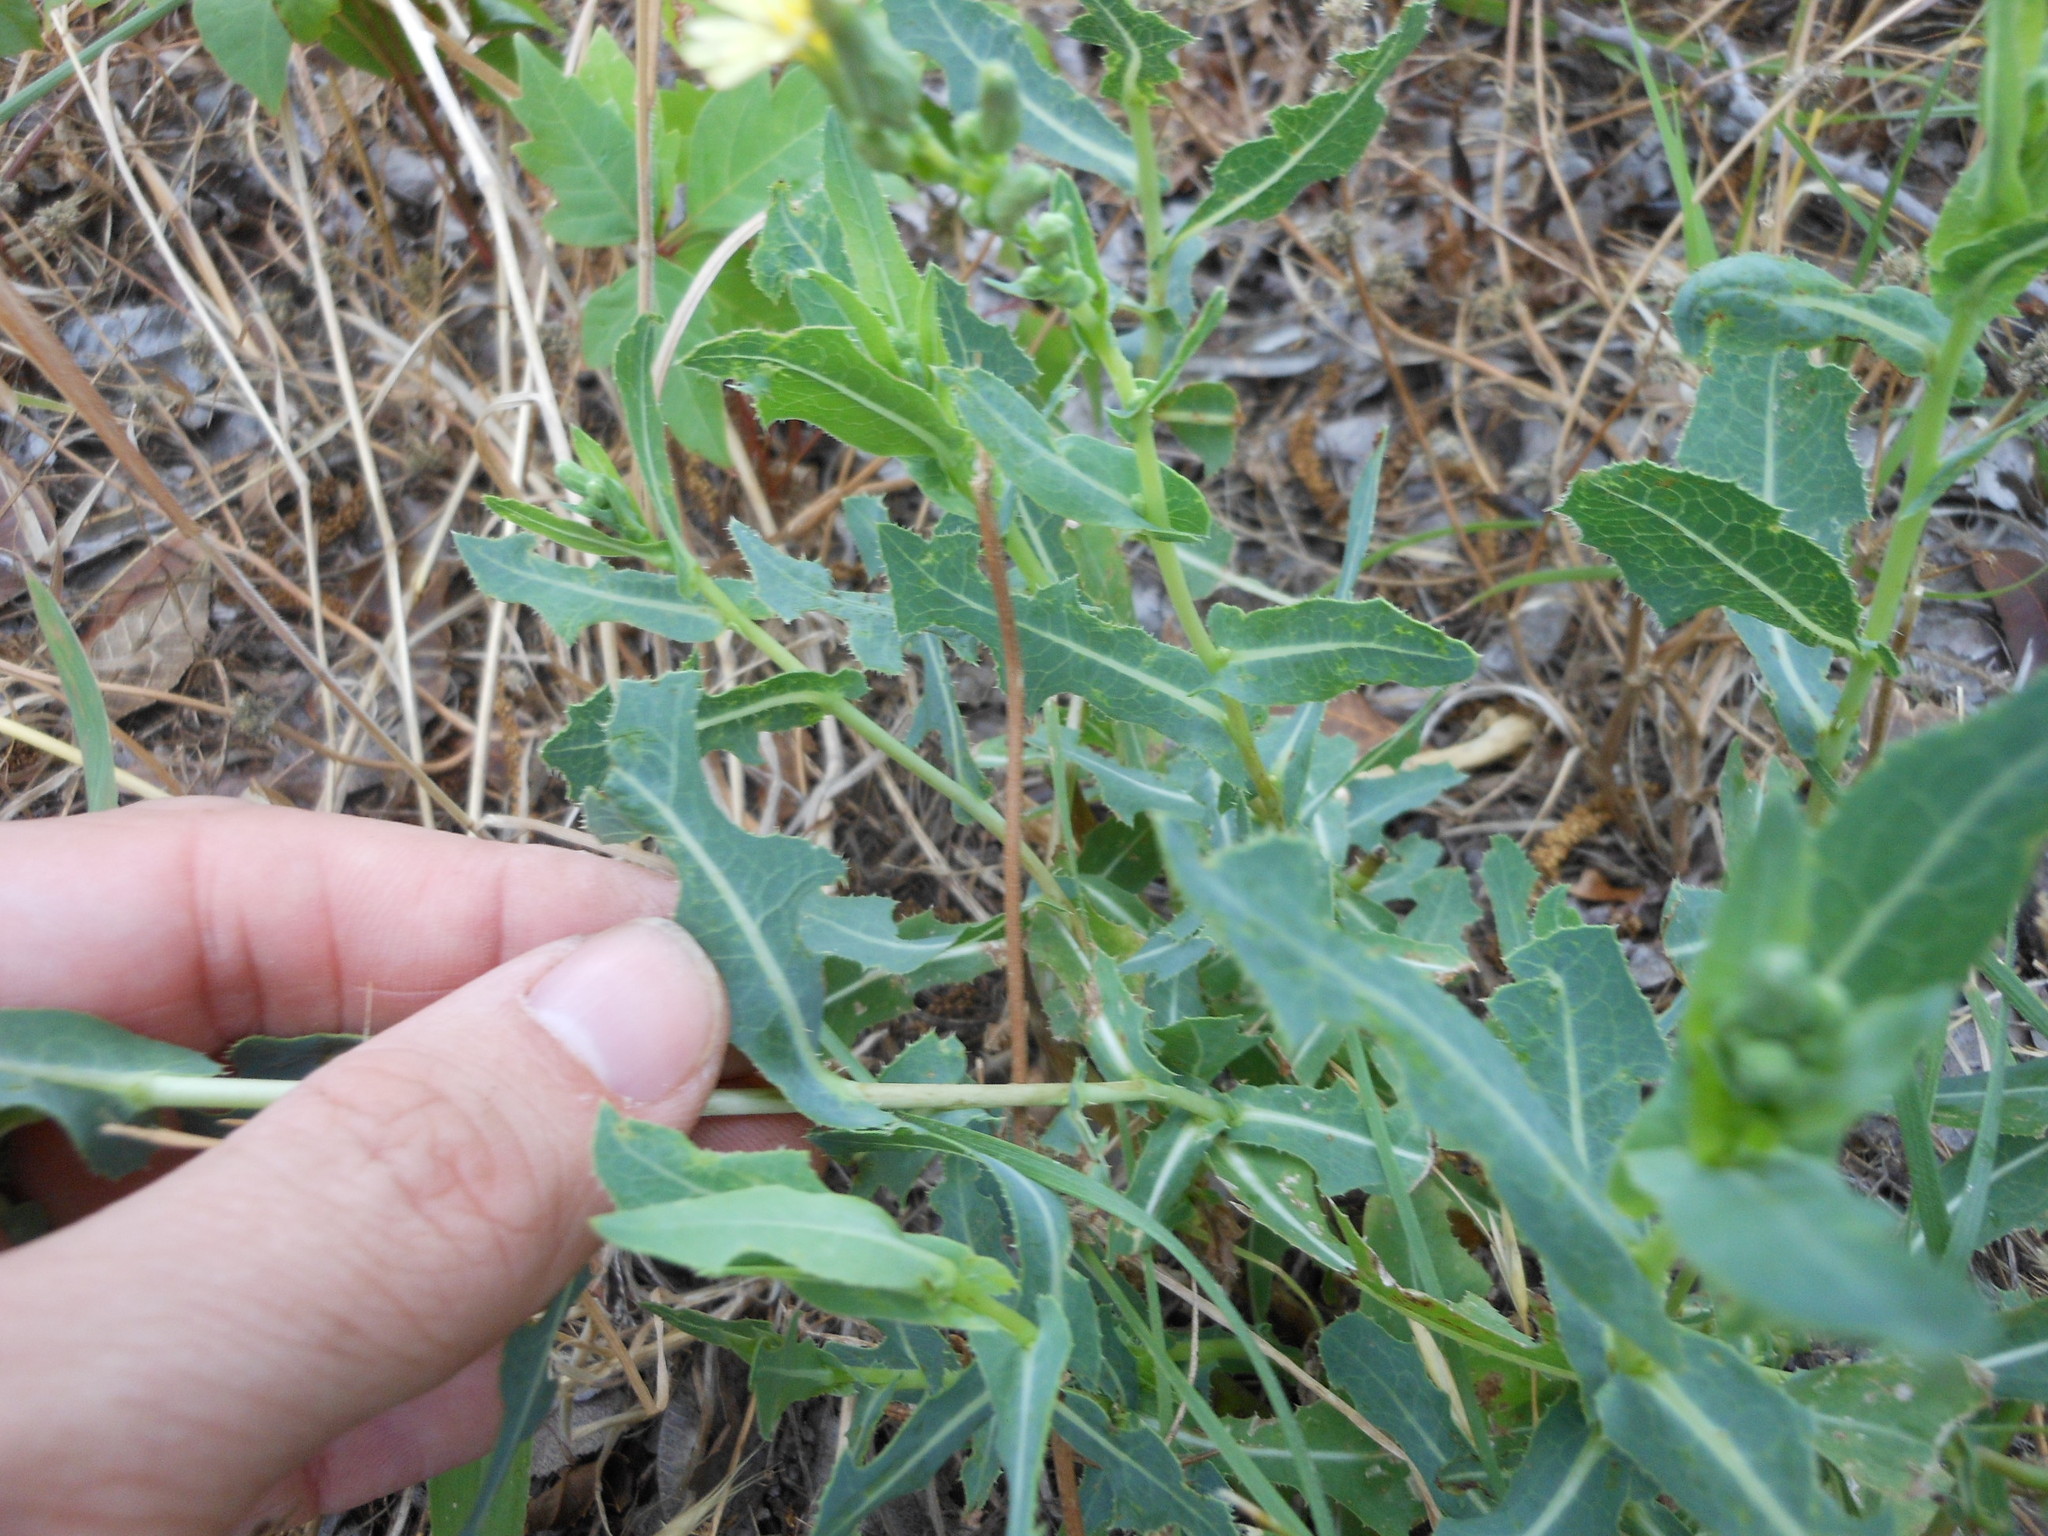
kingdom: Plantae
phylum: Tracheophyta
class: Magnoliopsida
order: Asterales
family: Asteraceae
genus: Lactuca
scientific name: Lactuca serriola
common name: Prickly lettuce
